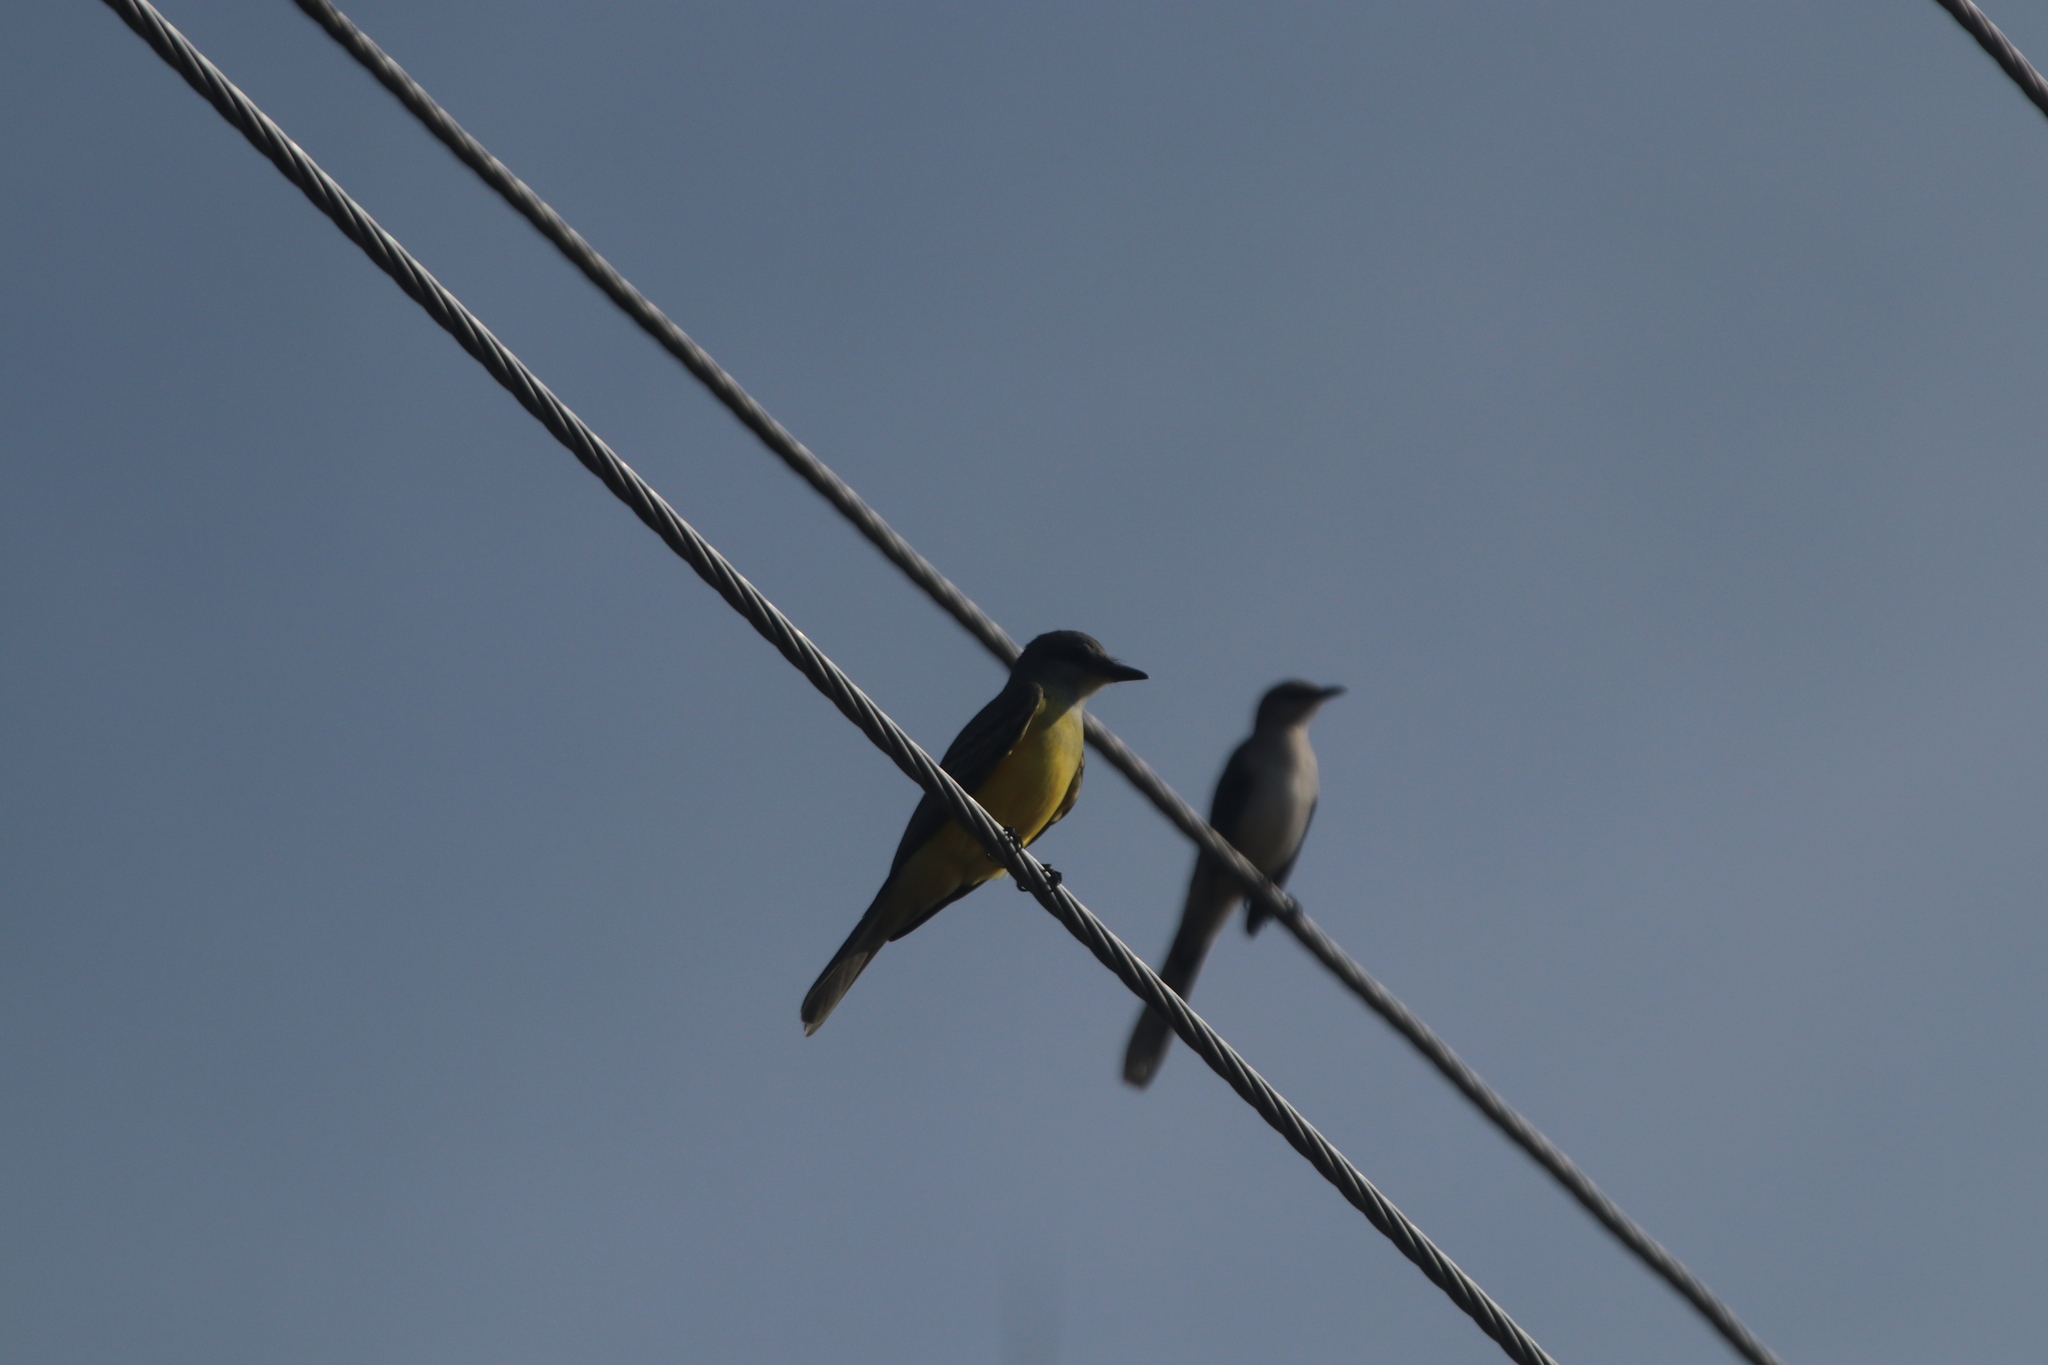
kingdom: Animalia
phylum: Chordata
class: Aves
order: Passeriformes
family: Tyrannidae
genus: Tyrannus
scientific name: Tyrannus couchii
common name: Couch's kingbird
